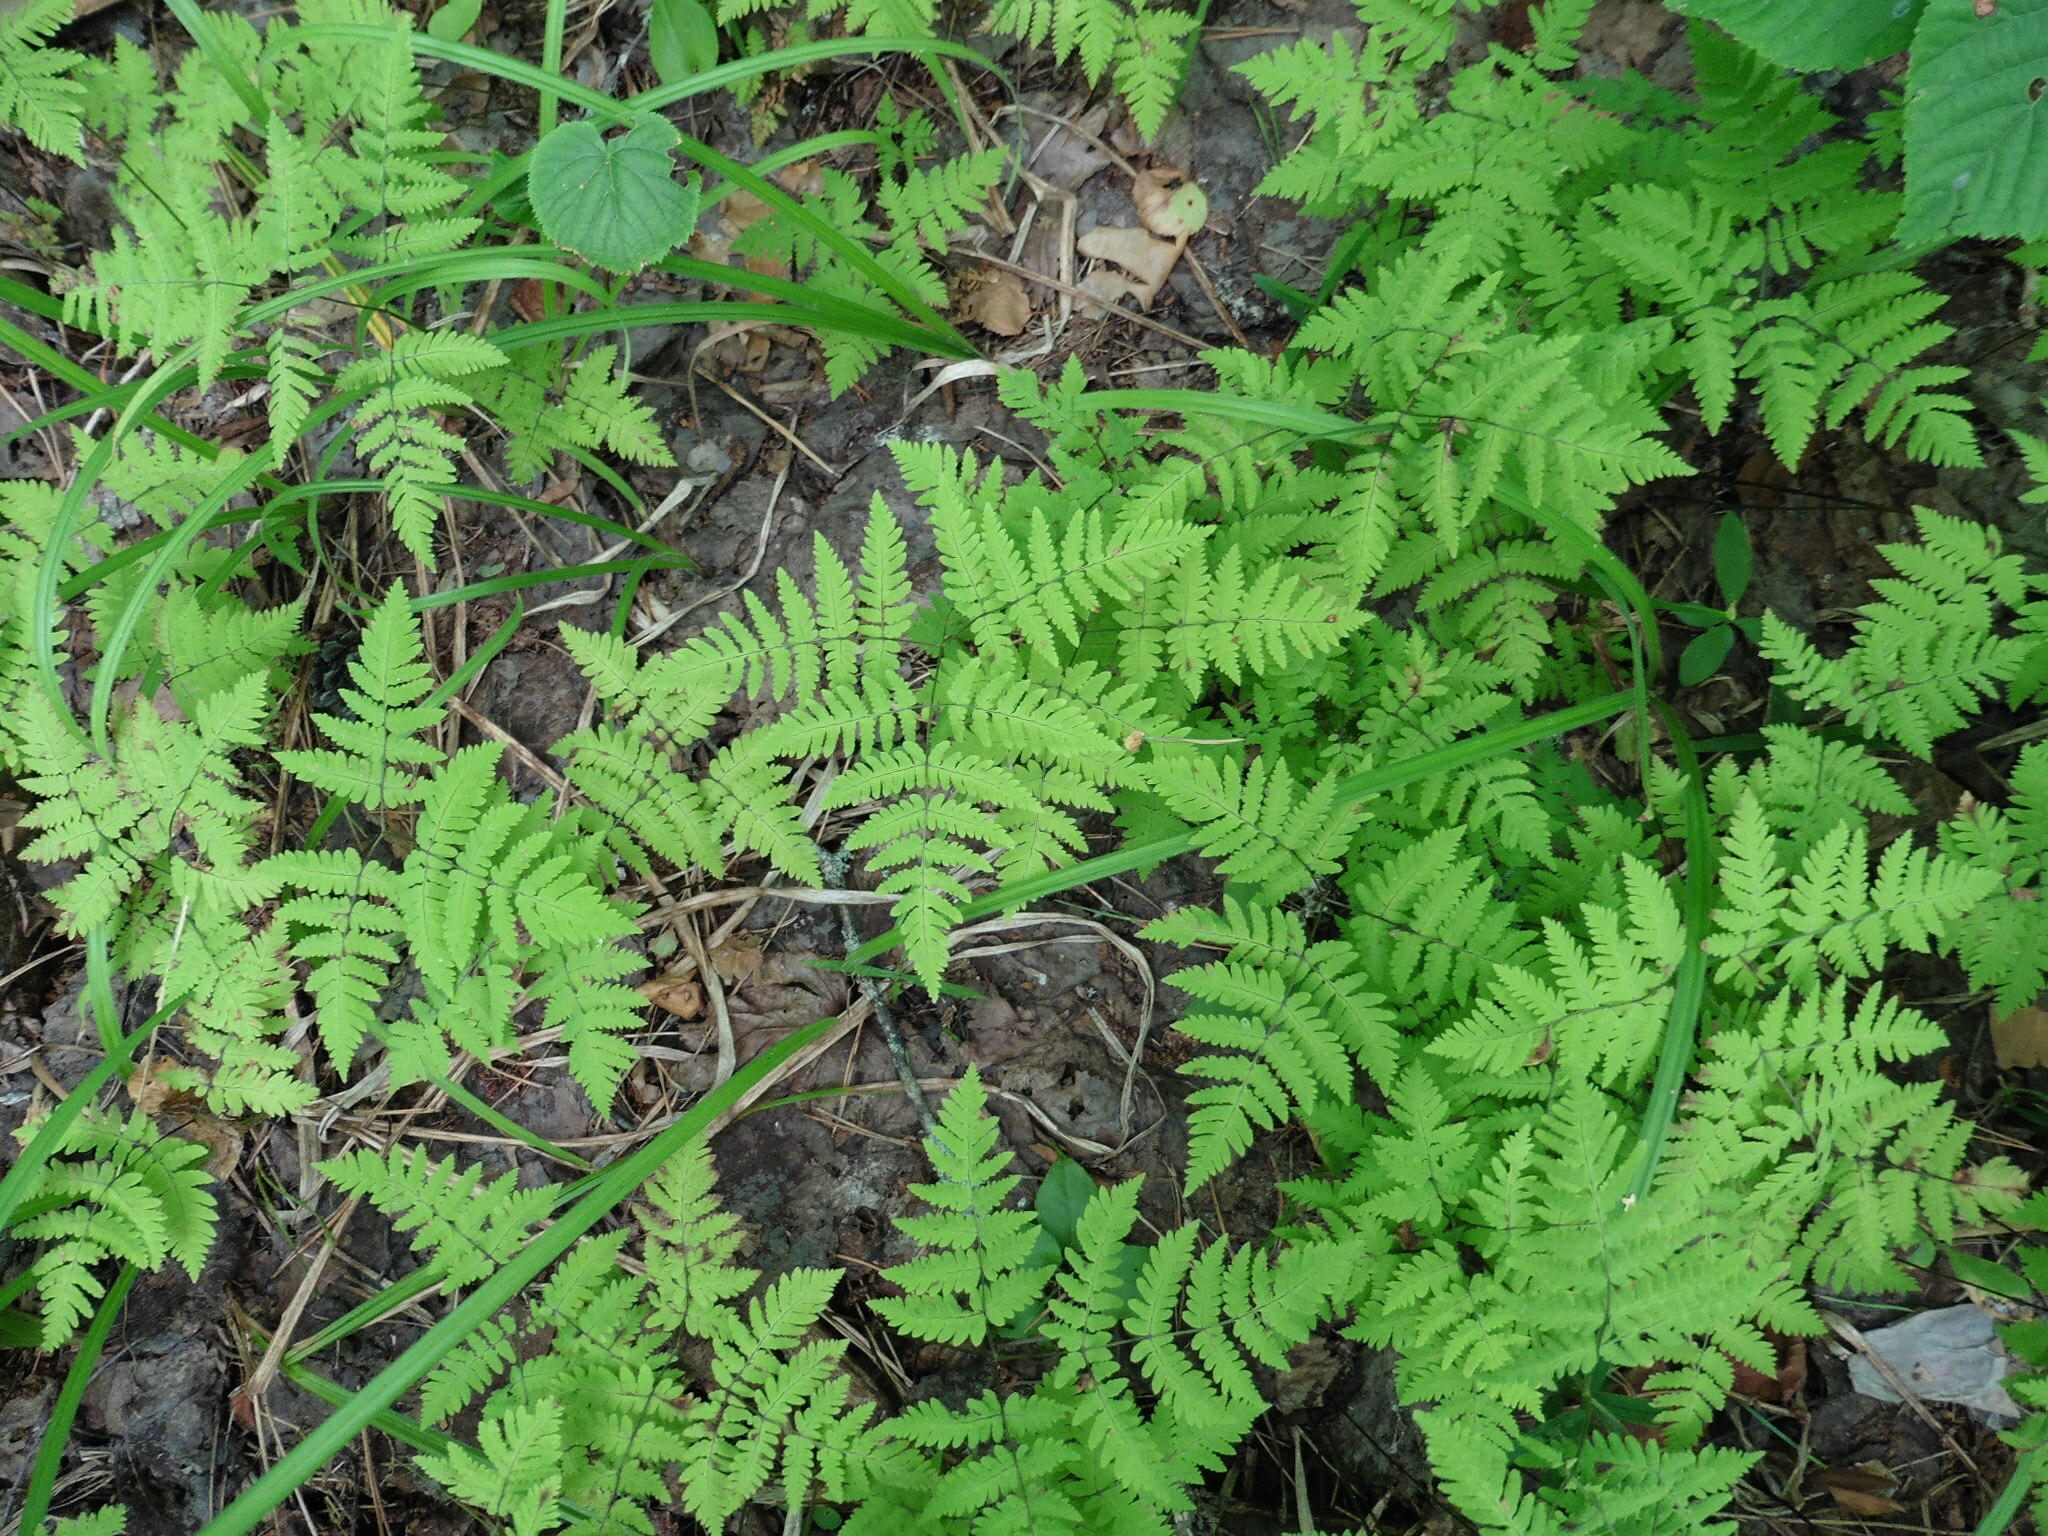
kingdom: Plantae
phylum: Tracheophyta
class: Polypodiopsida
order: Polypodiales
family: Cystopteridaceae
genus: Gymnocarpium
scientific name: Gymnocarpium dryopteris
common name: Oak fern
